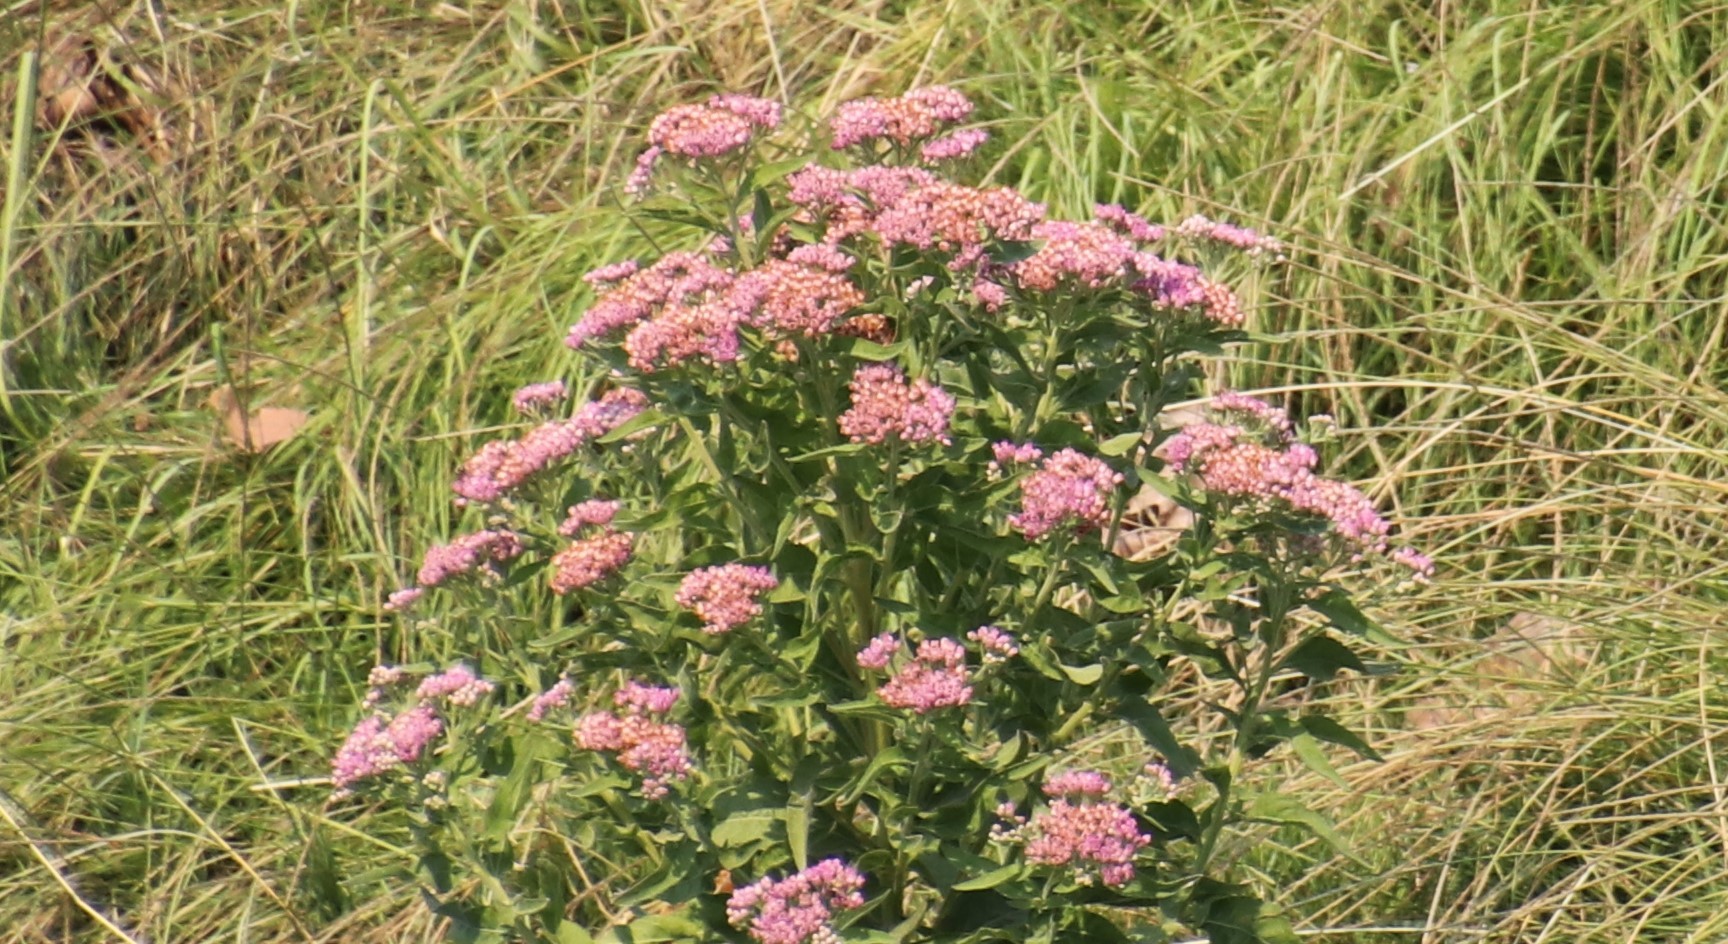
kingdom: Plantae
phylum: Tracheophyta
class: Magnoliopsida
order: Asterales
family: Asteraceae
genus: Pluchea
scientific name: Pluchea odorata
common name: Saltmarsh fleabane
